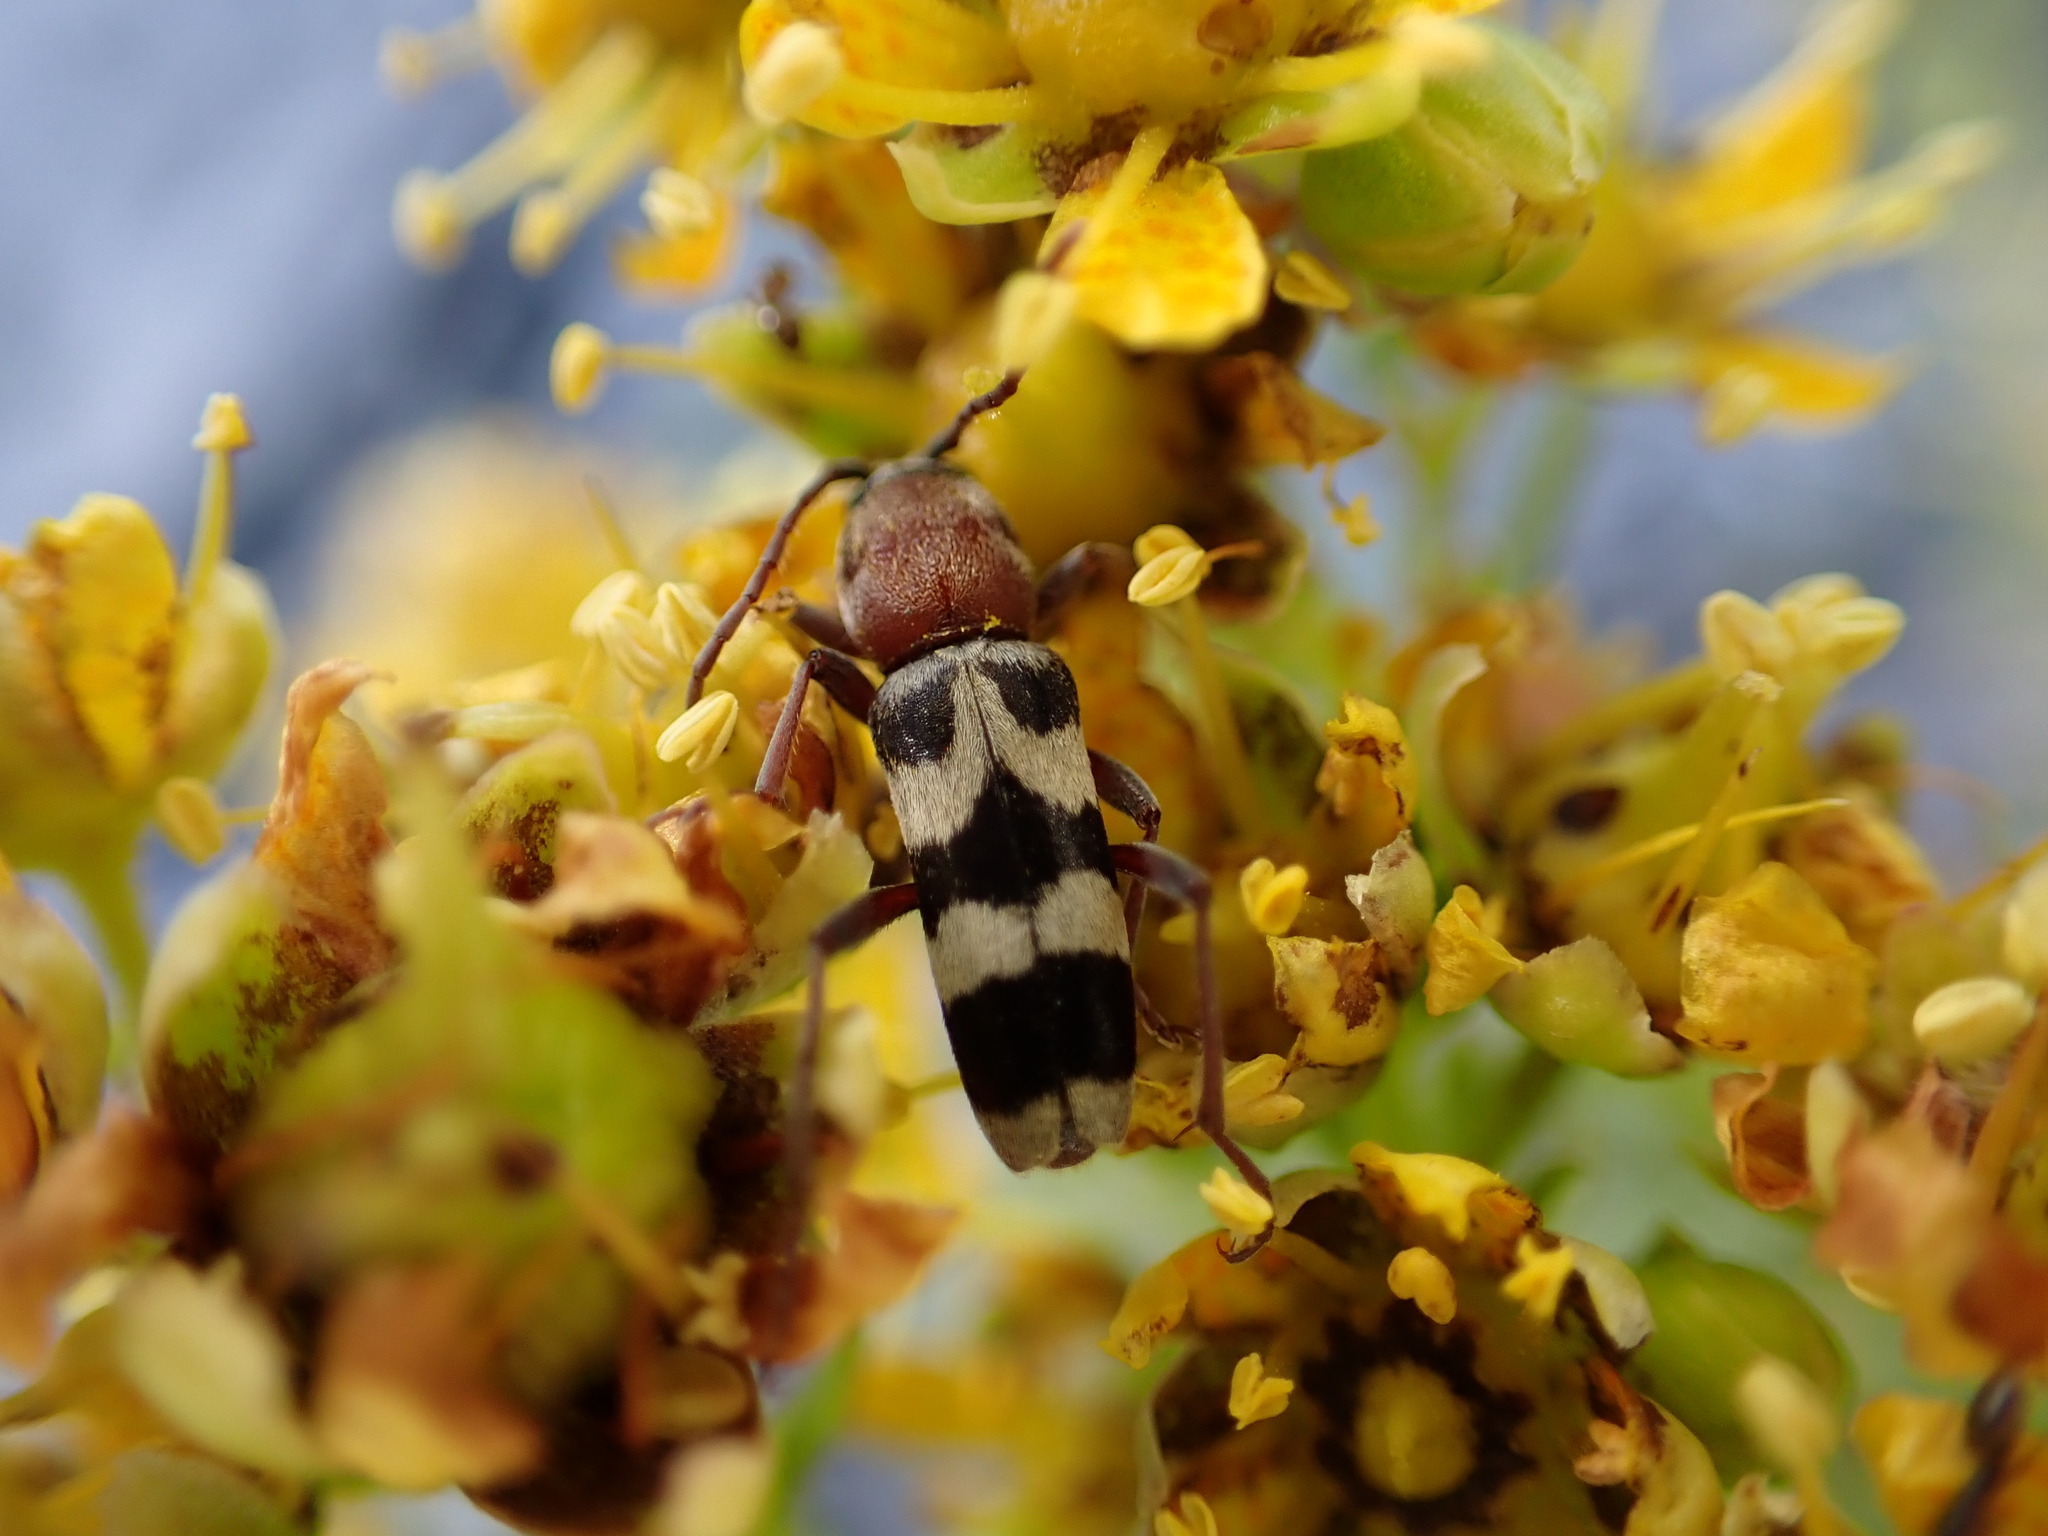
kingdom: Animalia
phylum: Arthropoda
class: Insecta
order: Coleoptera
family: Cerambycidae
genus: Chlorophorus
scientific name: Chlorophorus trifasciatus
